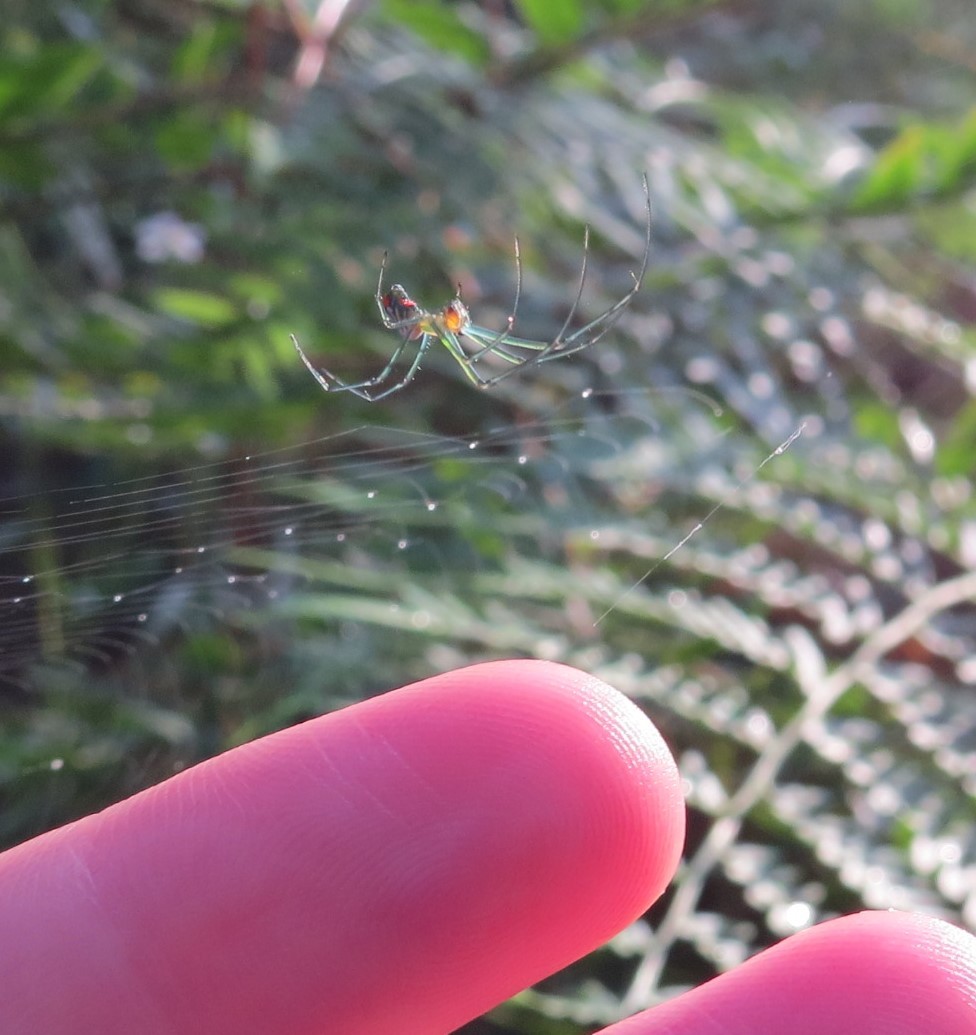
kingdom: Animalia
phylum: Arthropoda
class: Arachnida
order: Araneae
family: Tetragnathidae
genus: Leucauge
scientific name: Leucauge argyrobapta
